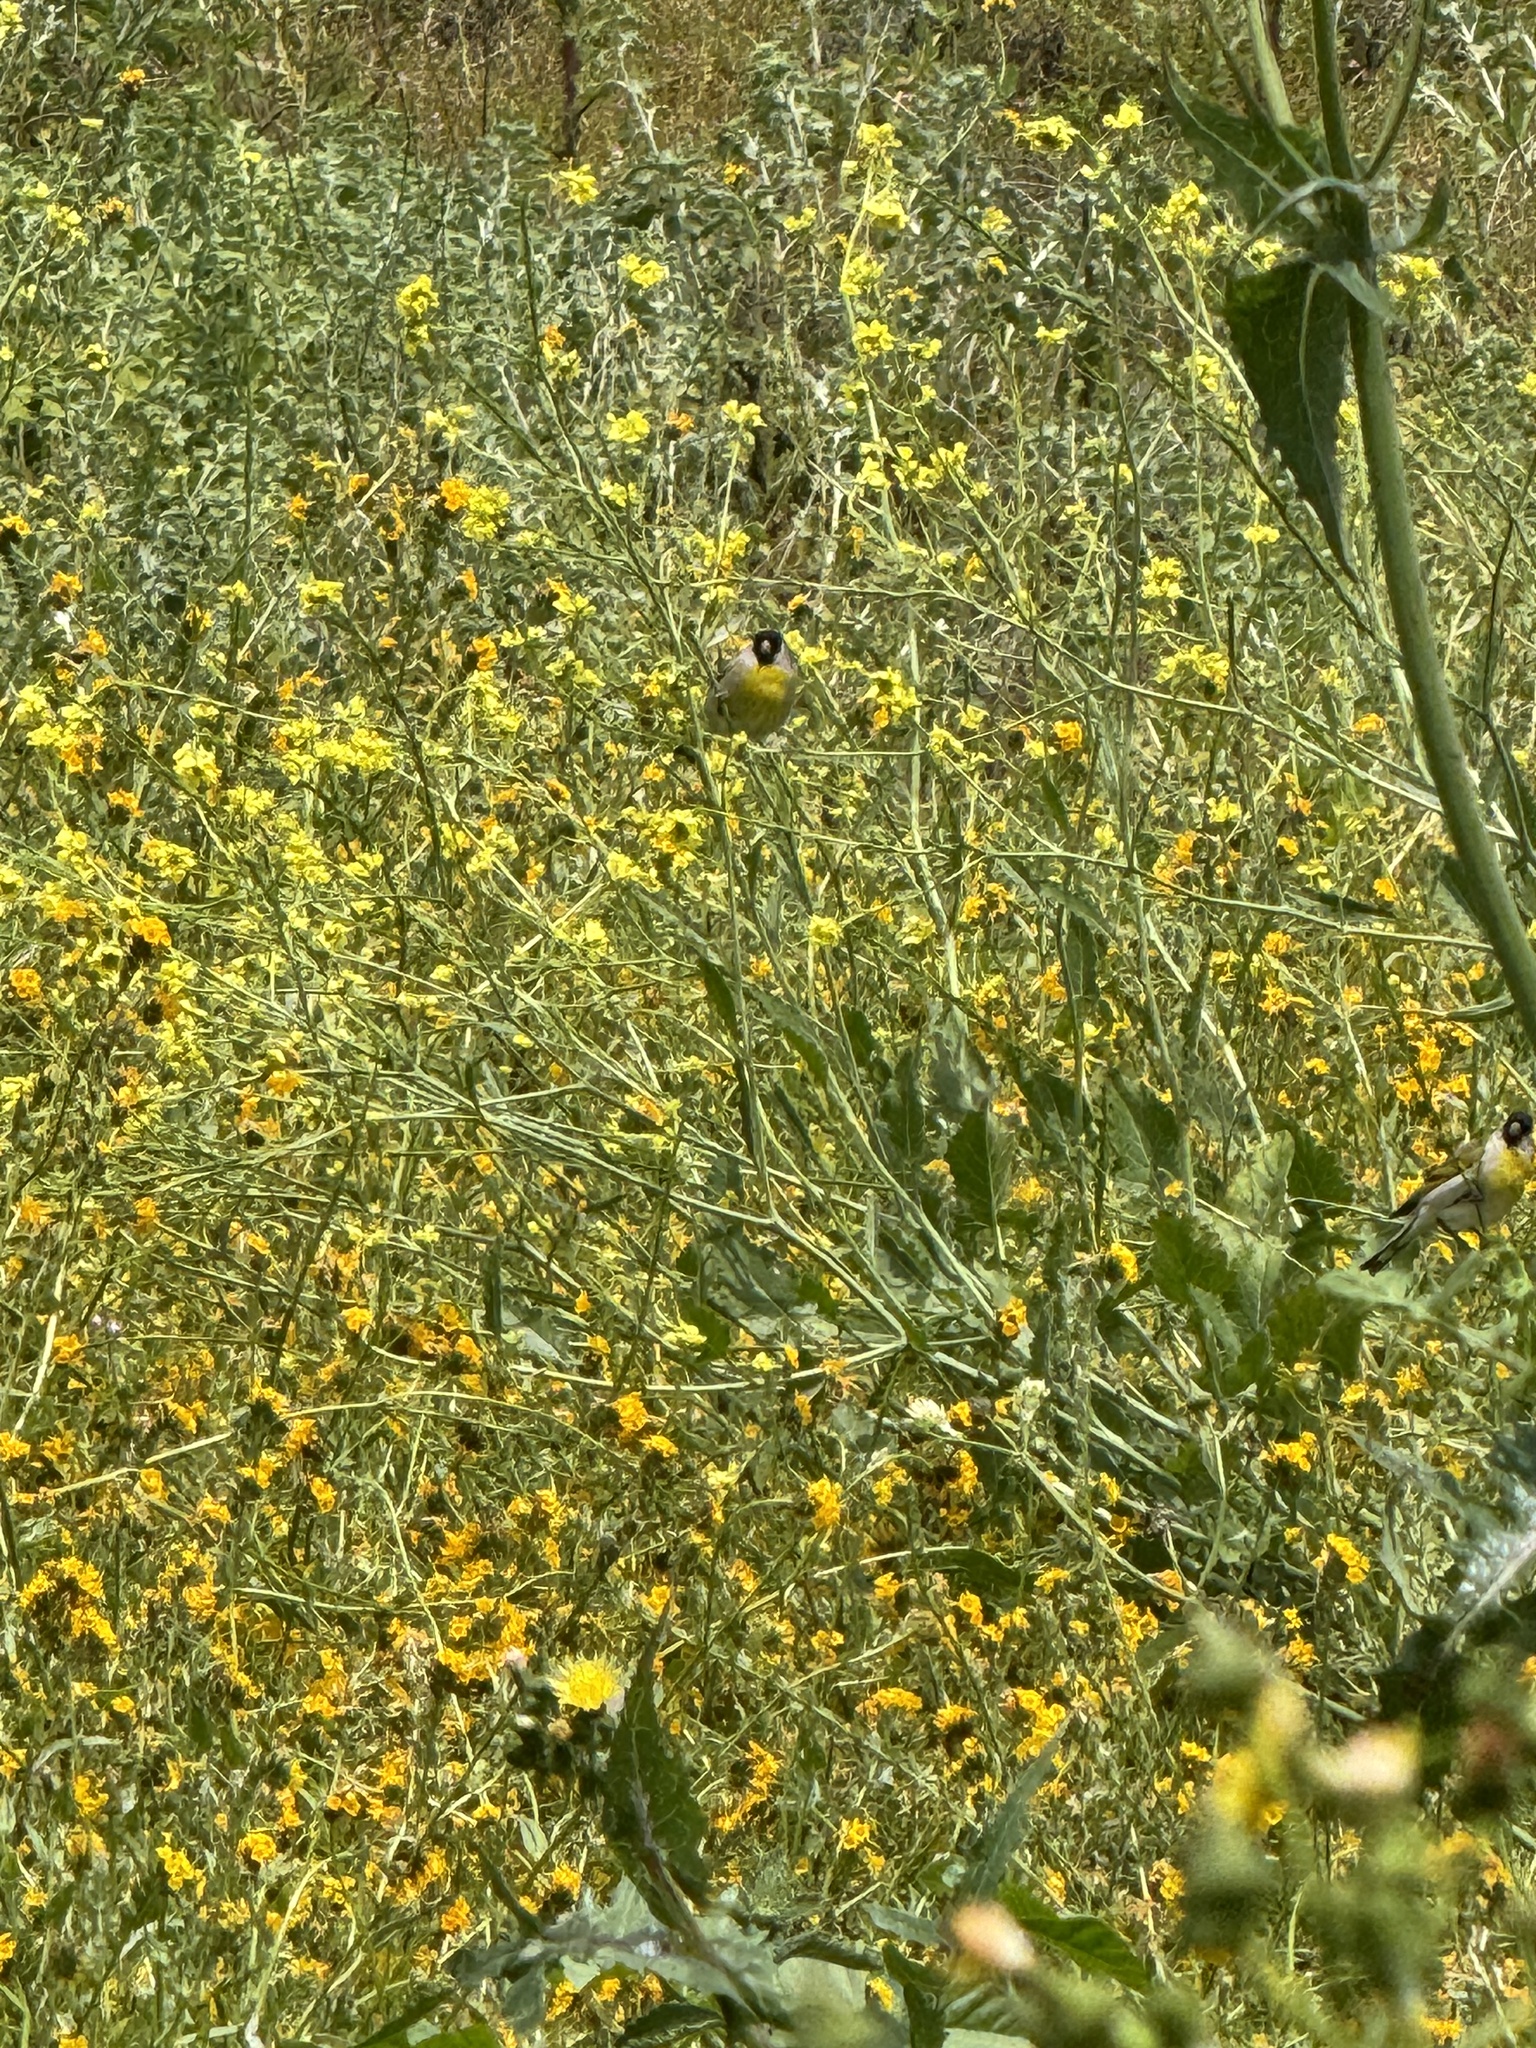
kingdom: Animalia
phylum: Chordata
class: Aves
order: Passeriformes
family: Fringillidae
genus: Spinus
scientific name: Spinus lawrencei
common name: Lawrence's goldfinch
